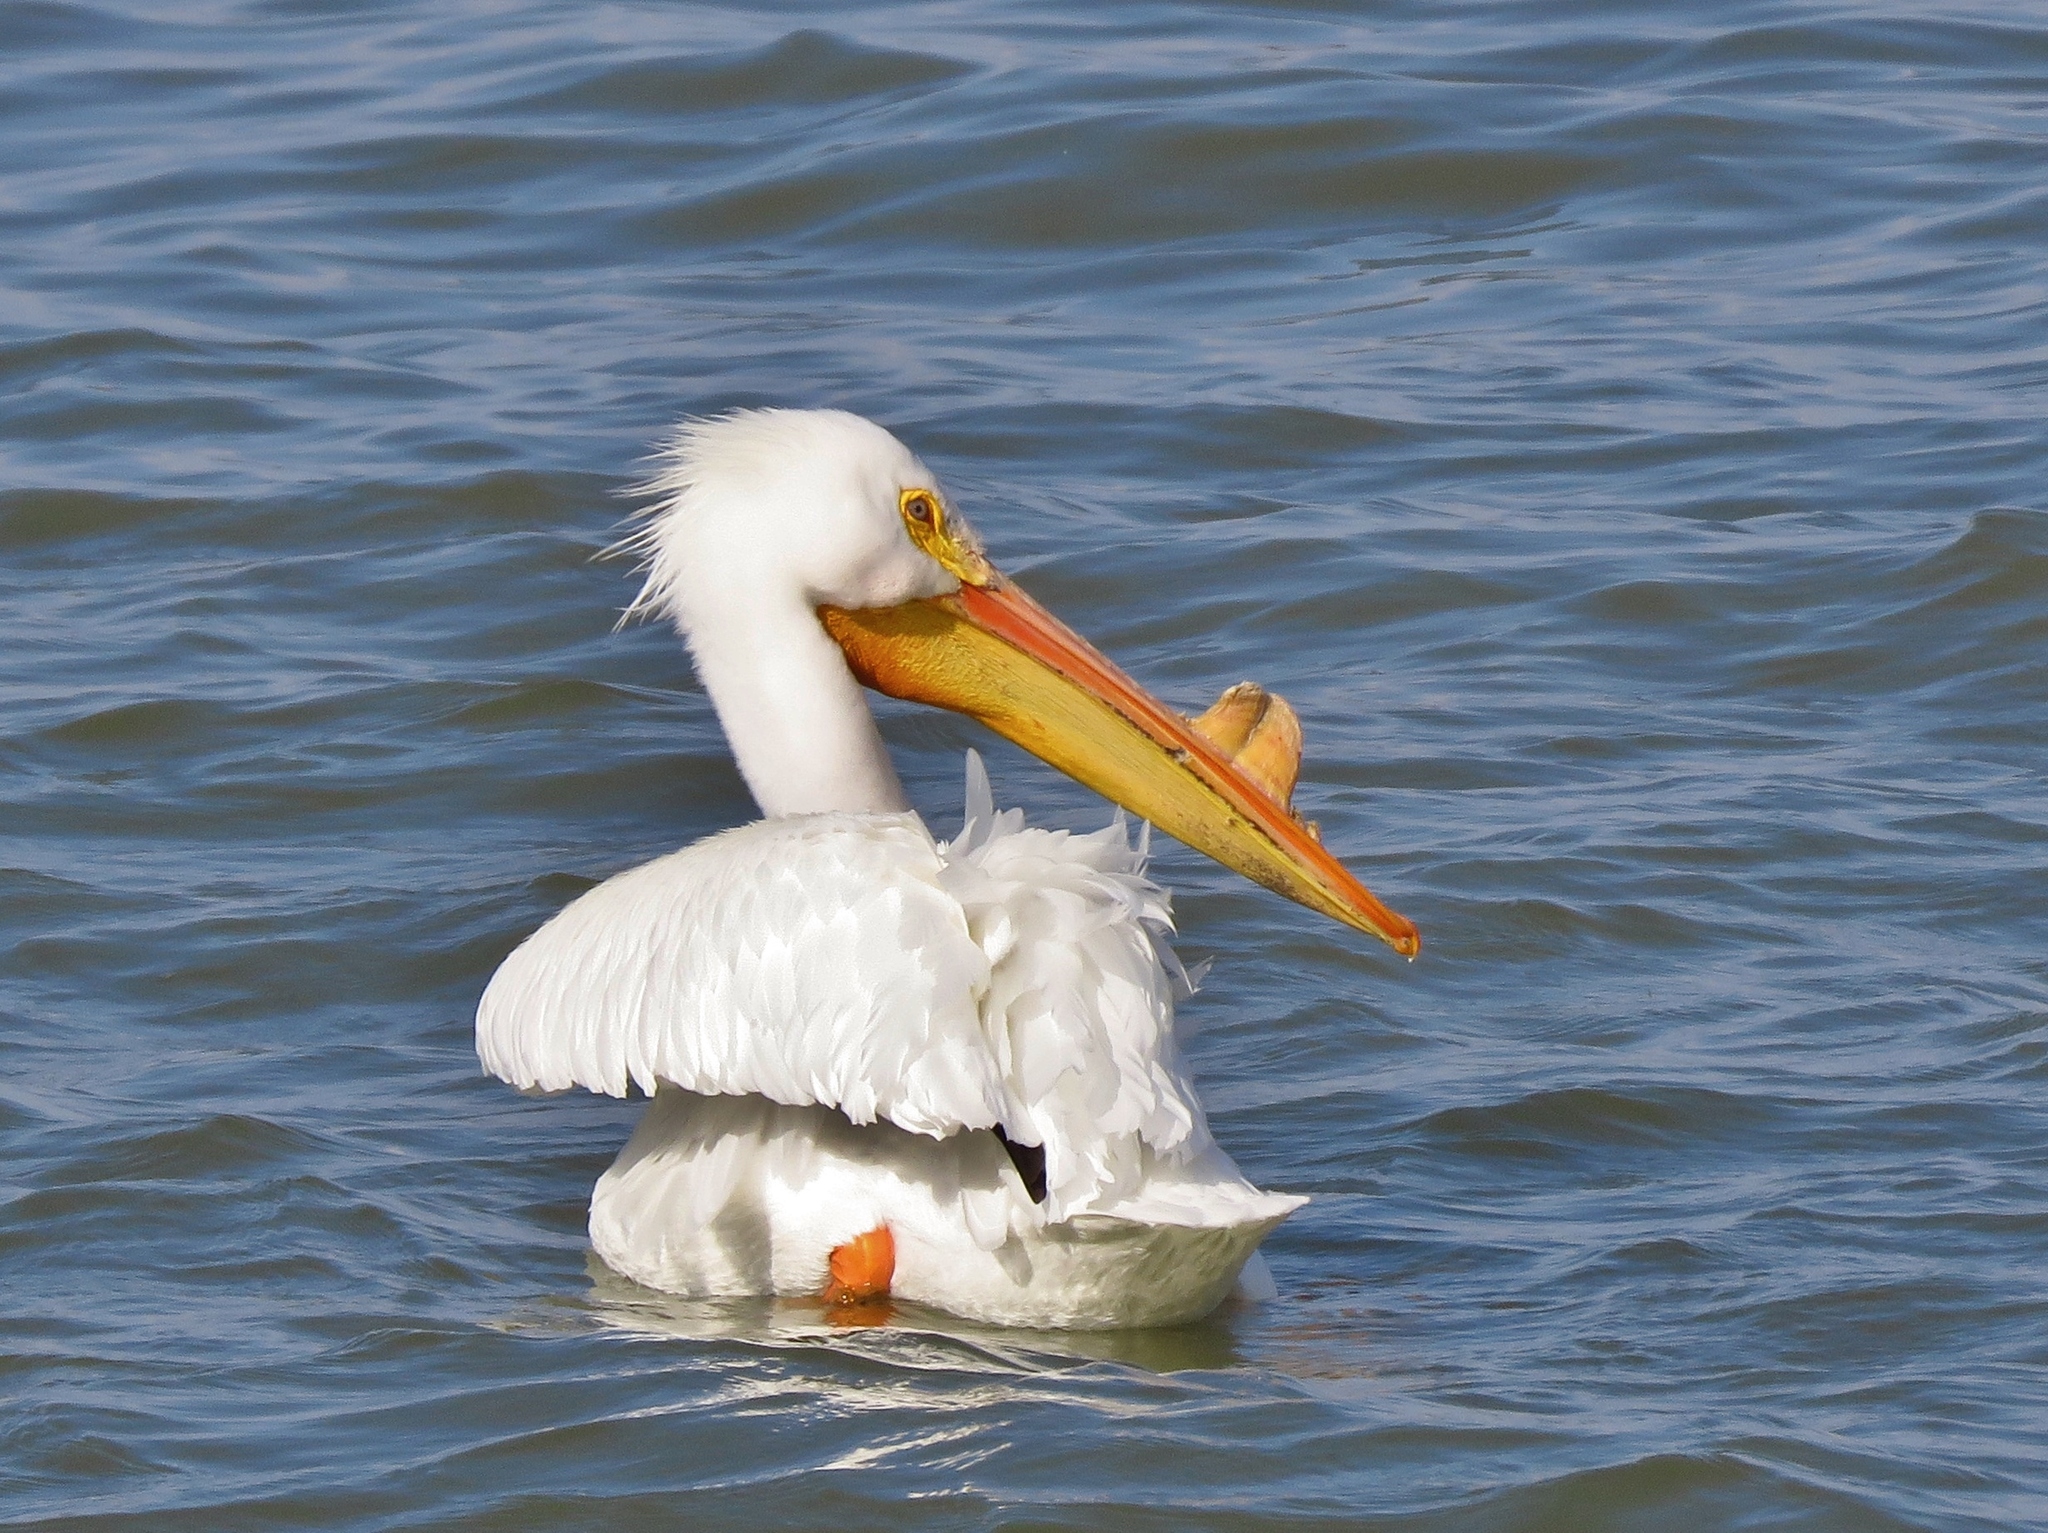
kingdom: Animalia
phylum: Chordata
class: Aves
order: Pelecaniformes
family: Pelecanidae
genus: Pelecanus
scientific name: Pelecanus erythrorhynchos
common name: American white pelican
